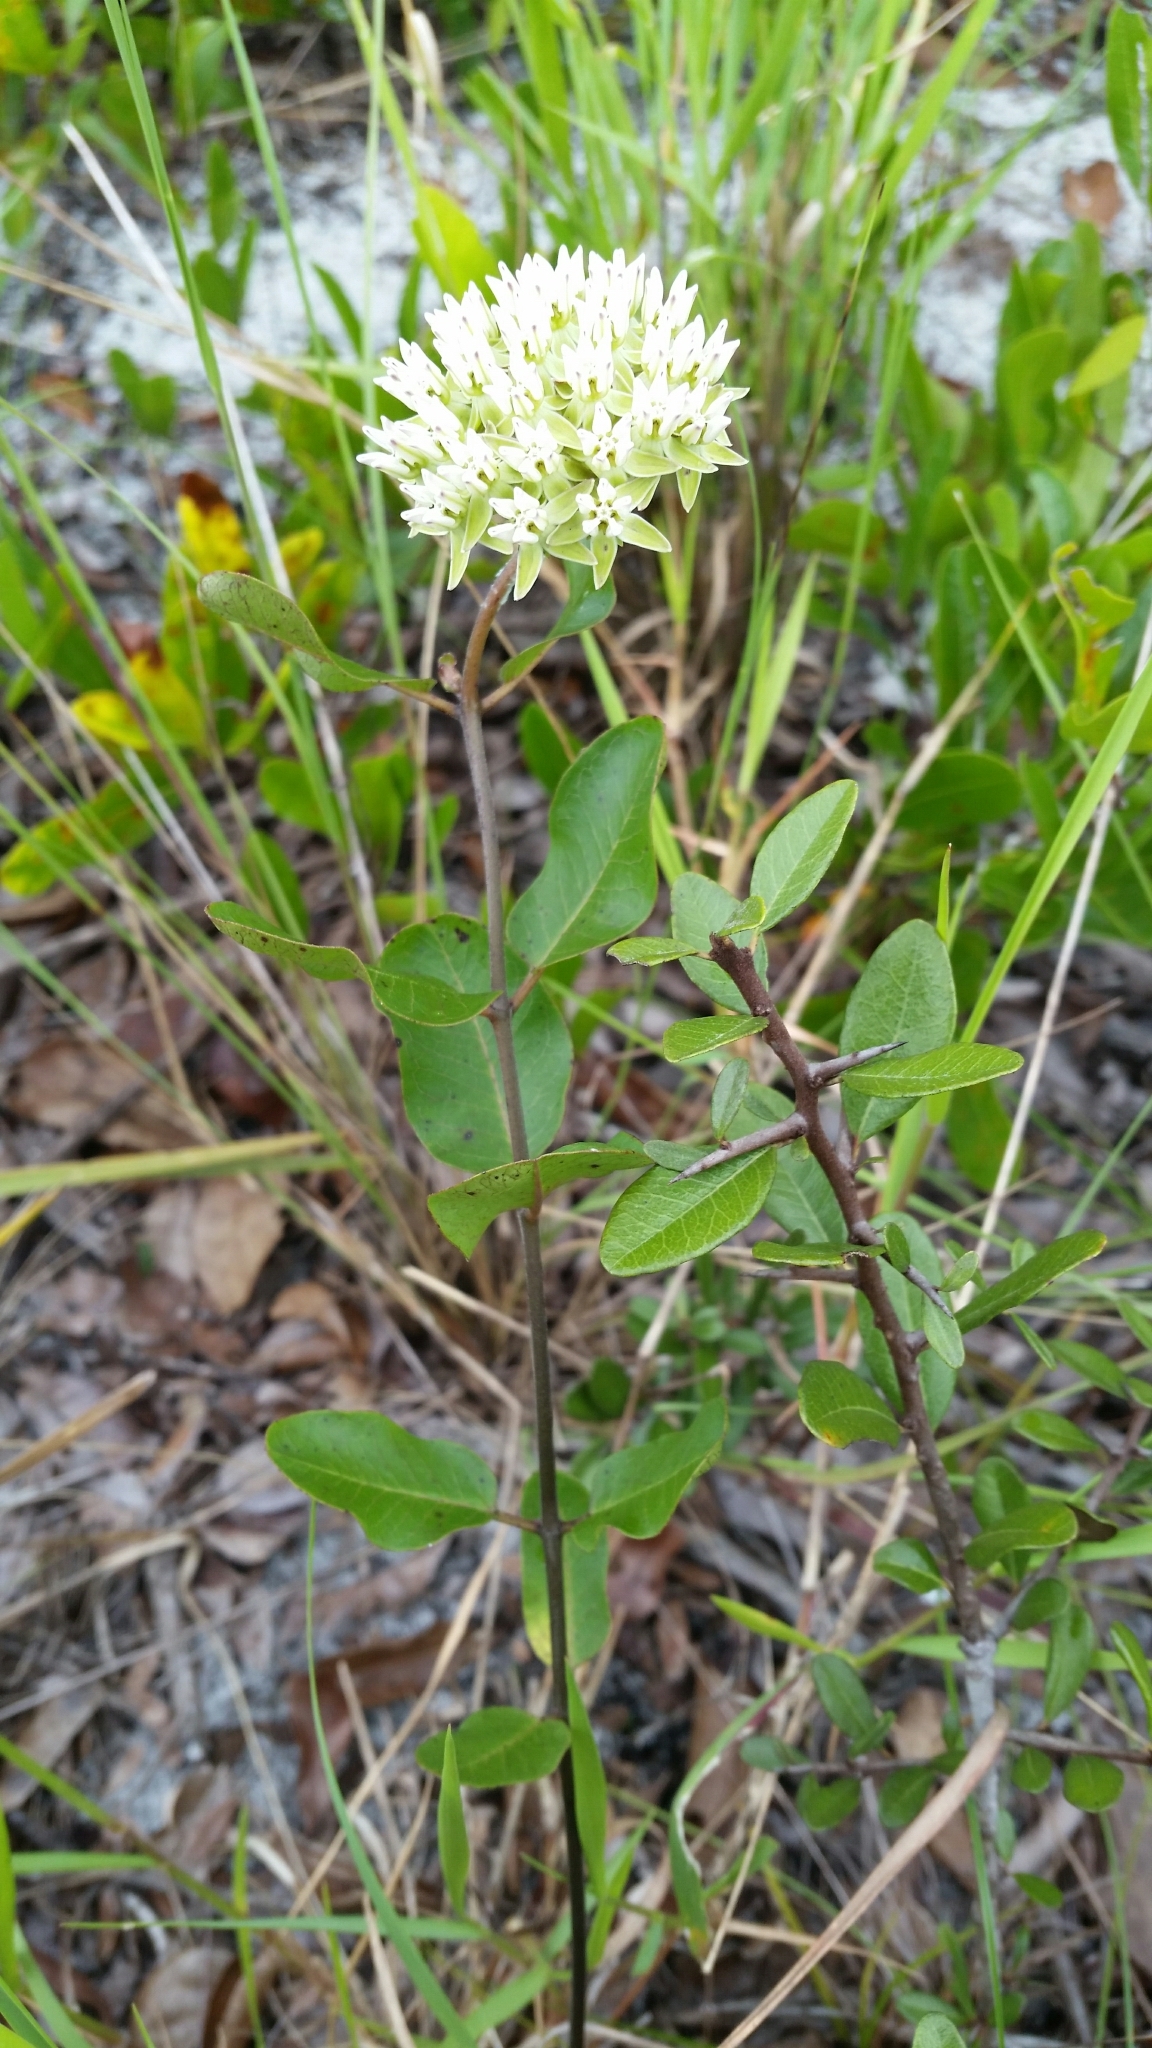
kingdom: Plantae
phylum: Tracheophyta
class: Magnoliopsida
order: Gentianales
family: Apocynaceae
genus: Asclepias
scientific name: Asclepias curtissii
